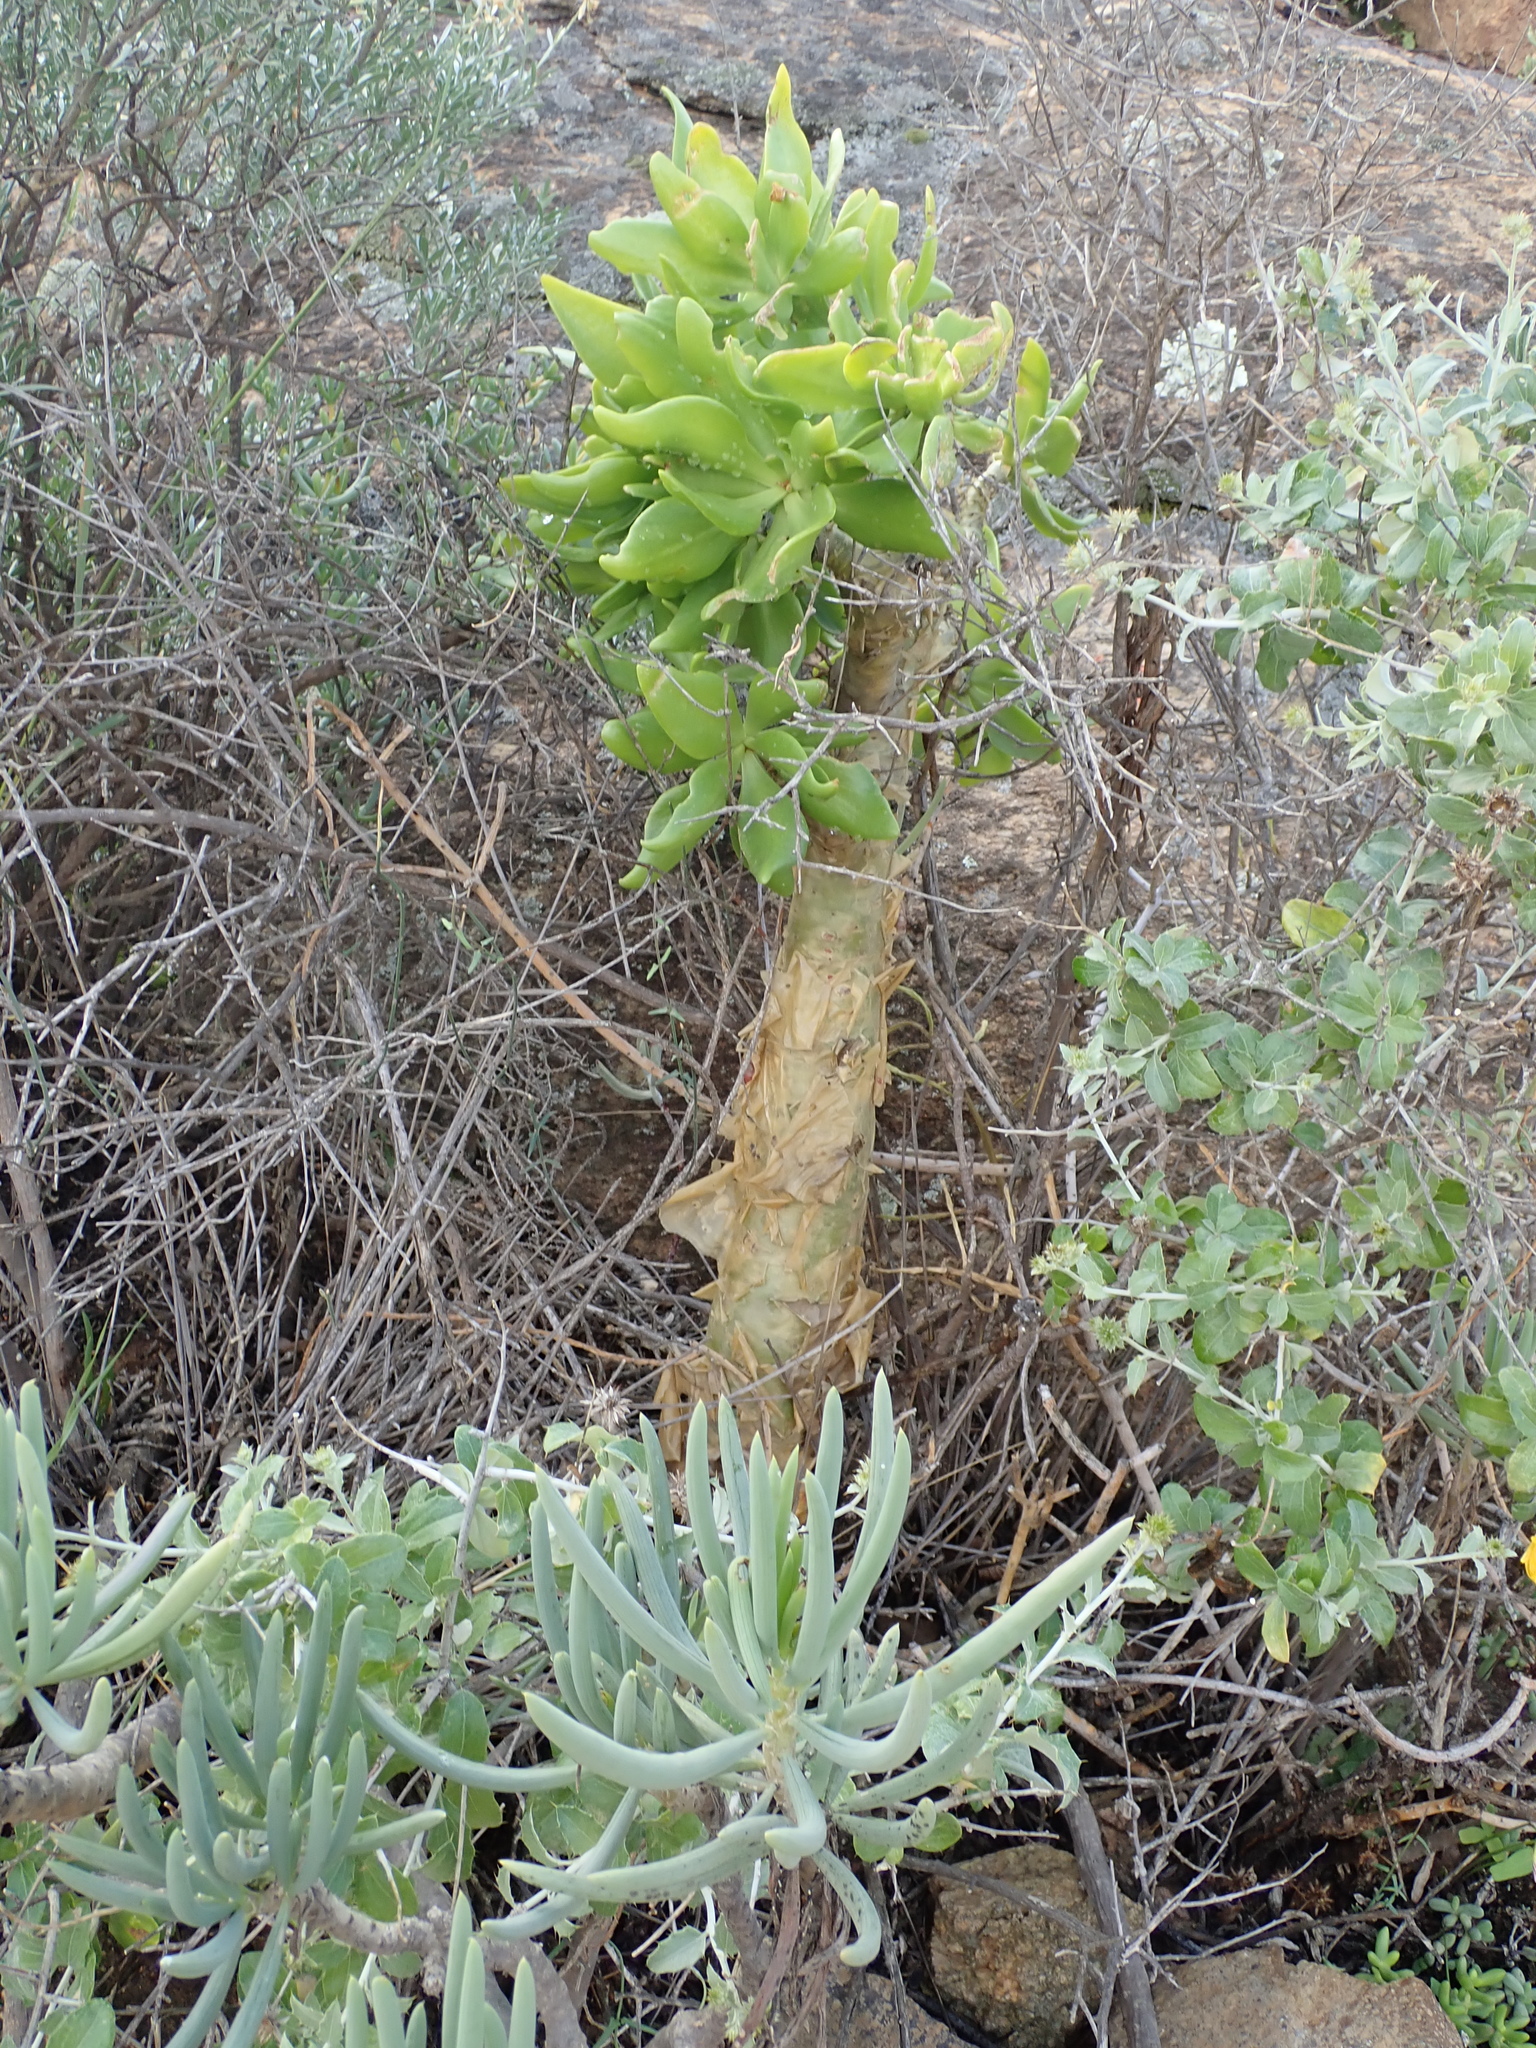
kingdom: Plantae
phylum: Tracheophyta
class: Magnoliopsida
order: Saxifragales
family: Crassulaceae
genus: Tylecodon
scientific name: Tylecodon paniculatus
